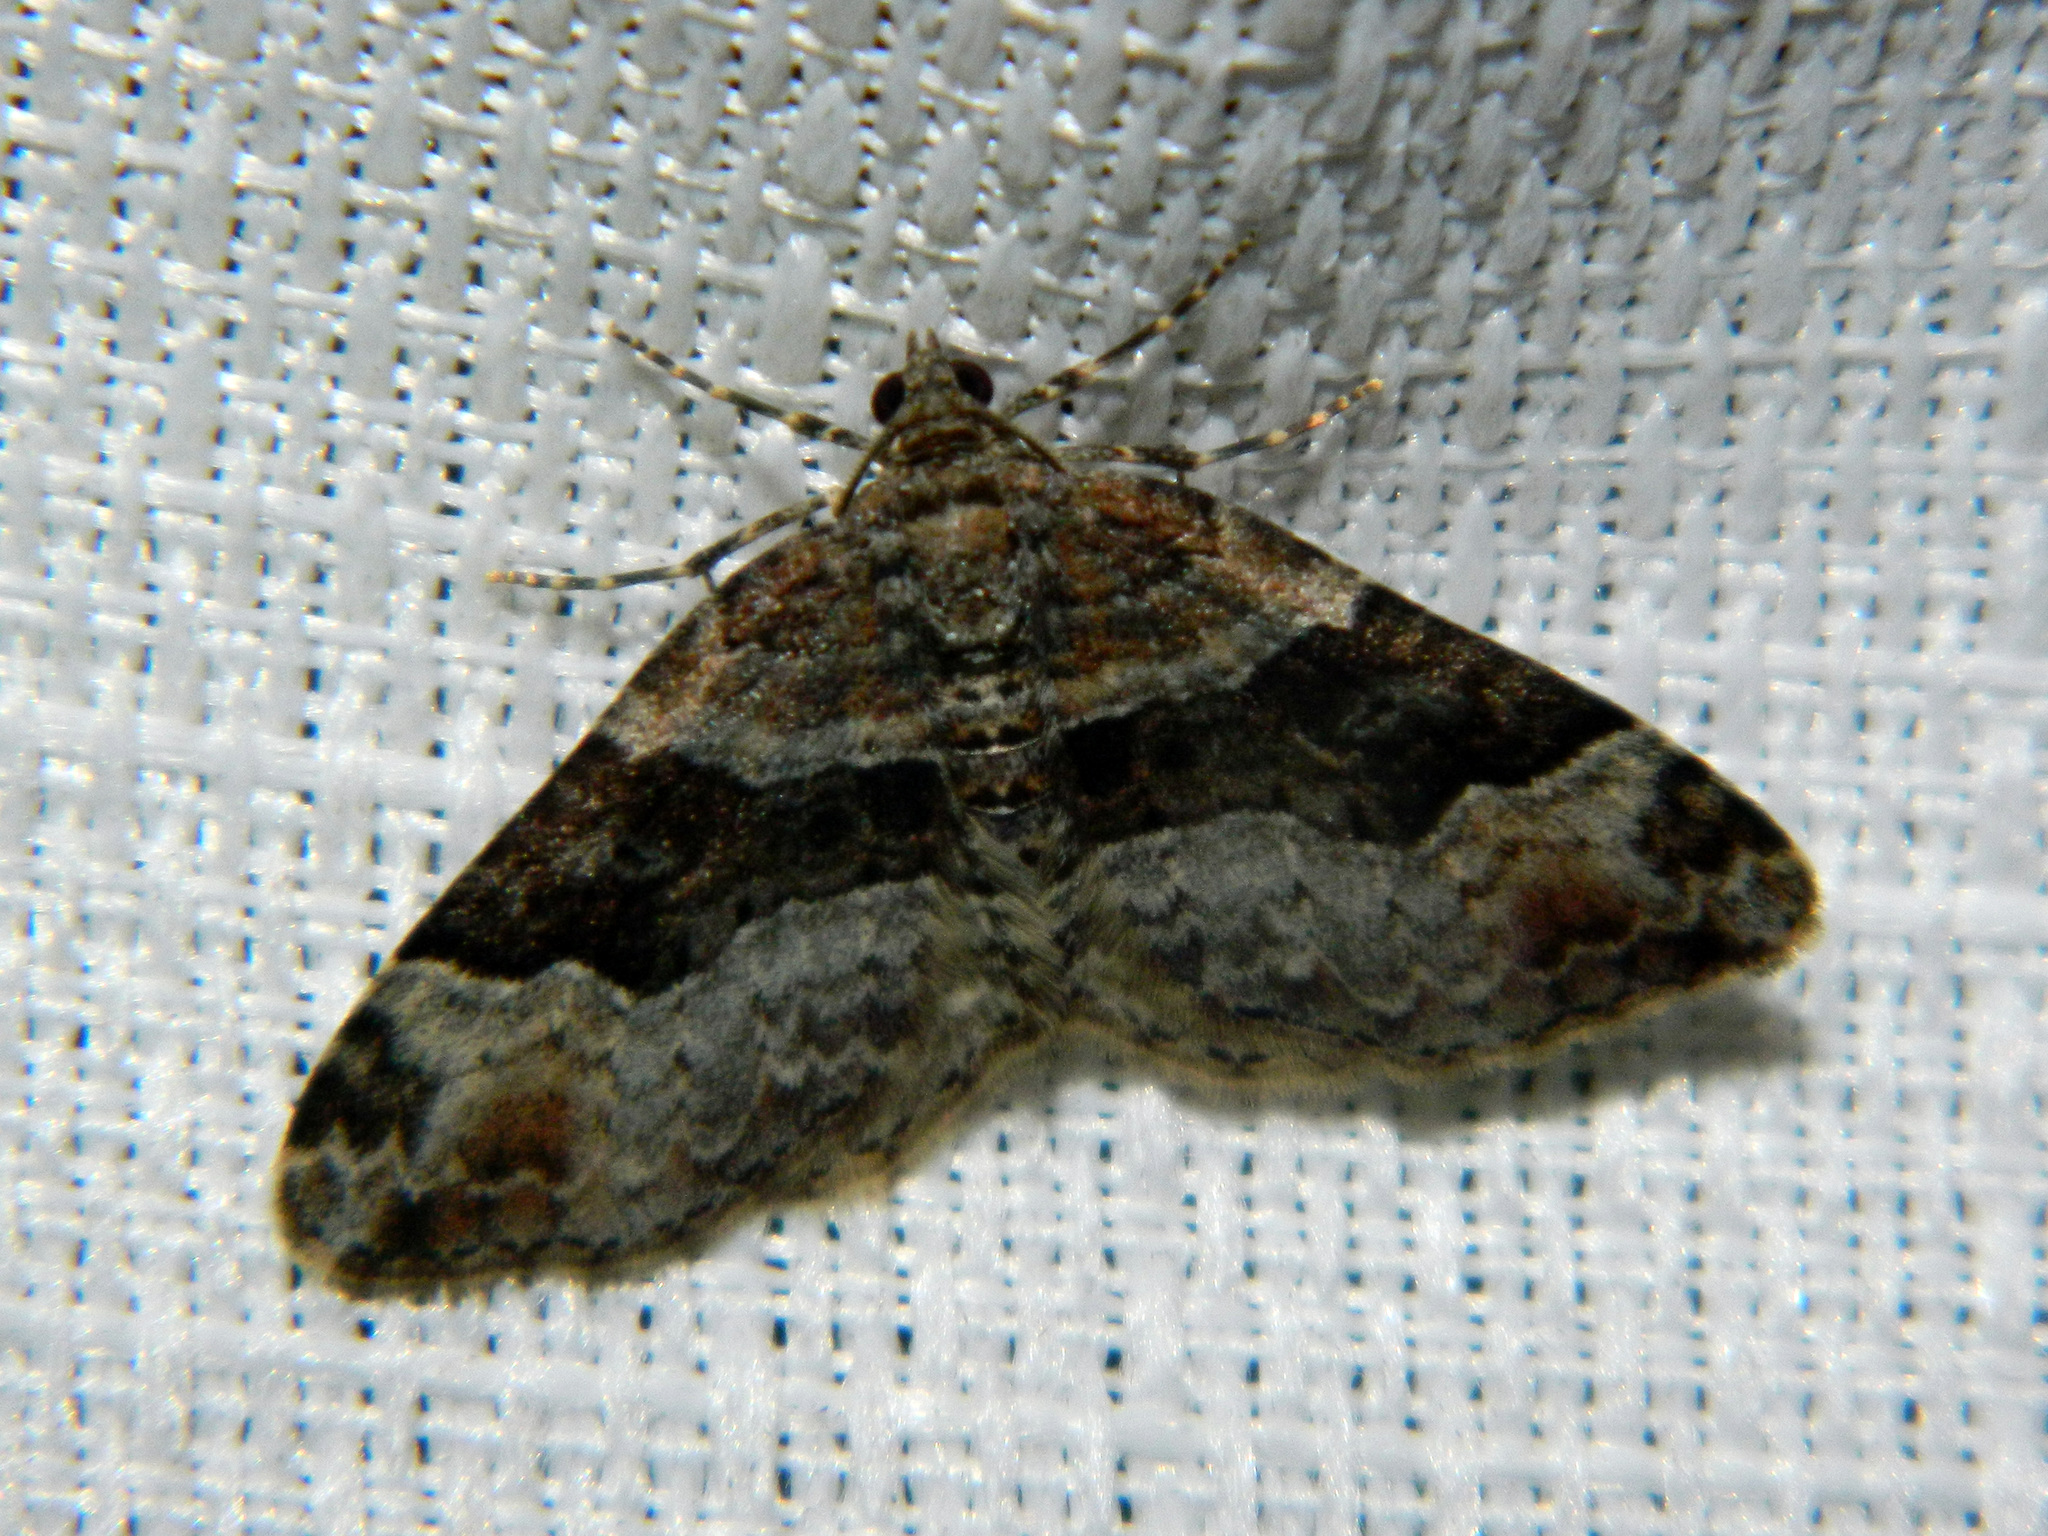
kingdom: Animalia
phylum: Arthropoda
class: Insecta
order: Lepidoptera
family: Geometridae
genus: Xanthorhoe
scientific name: Xanthorhoe ferrugata
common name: Dark-barred twin-spot carpet
